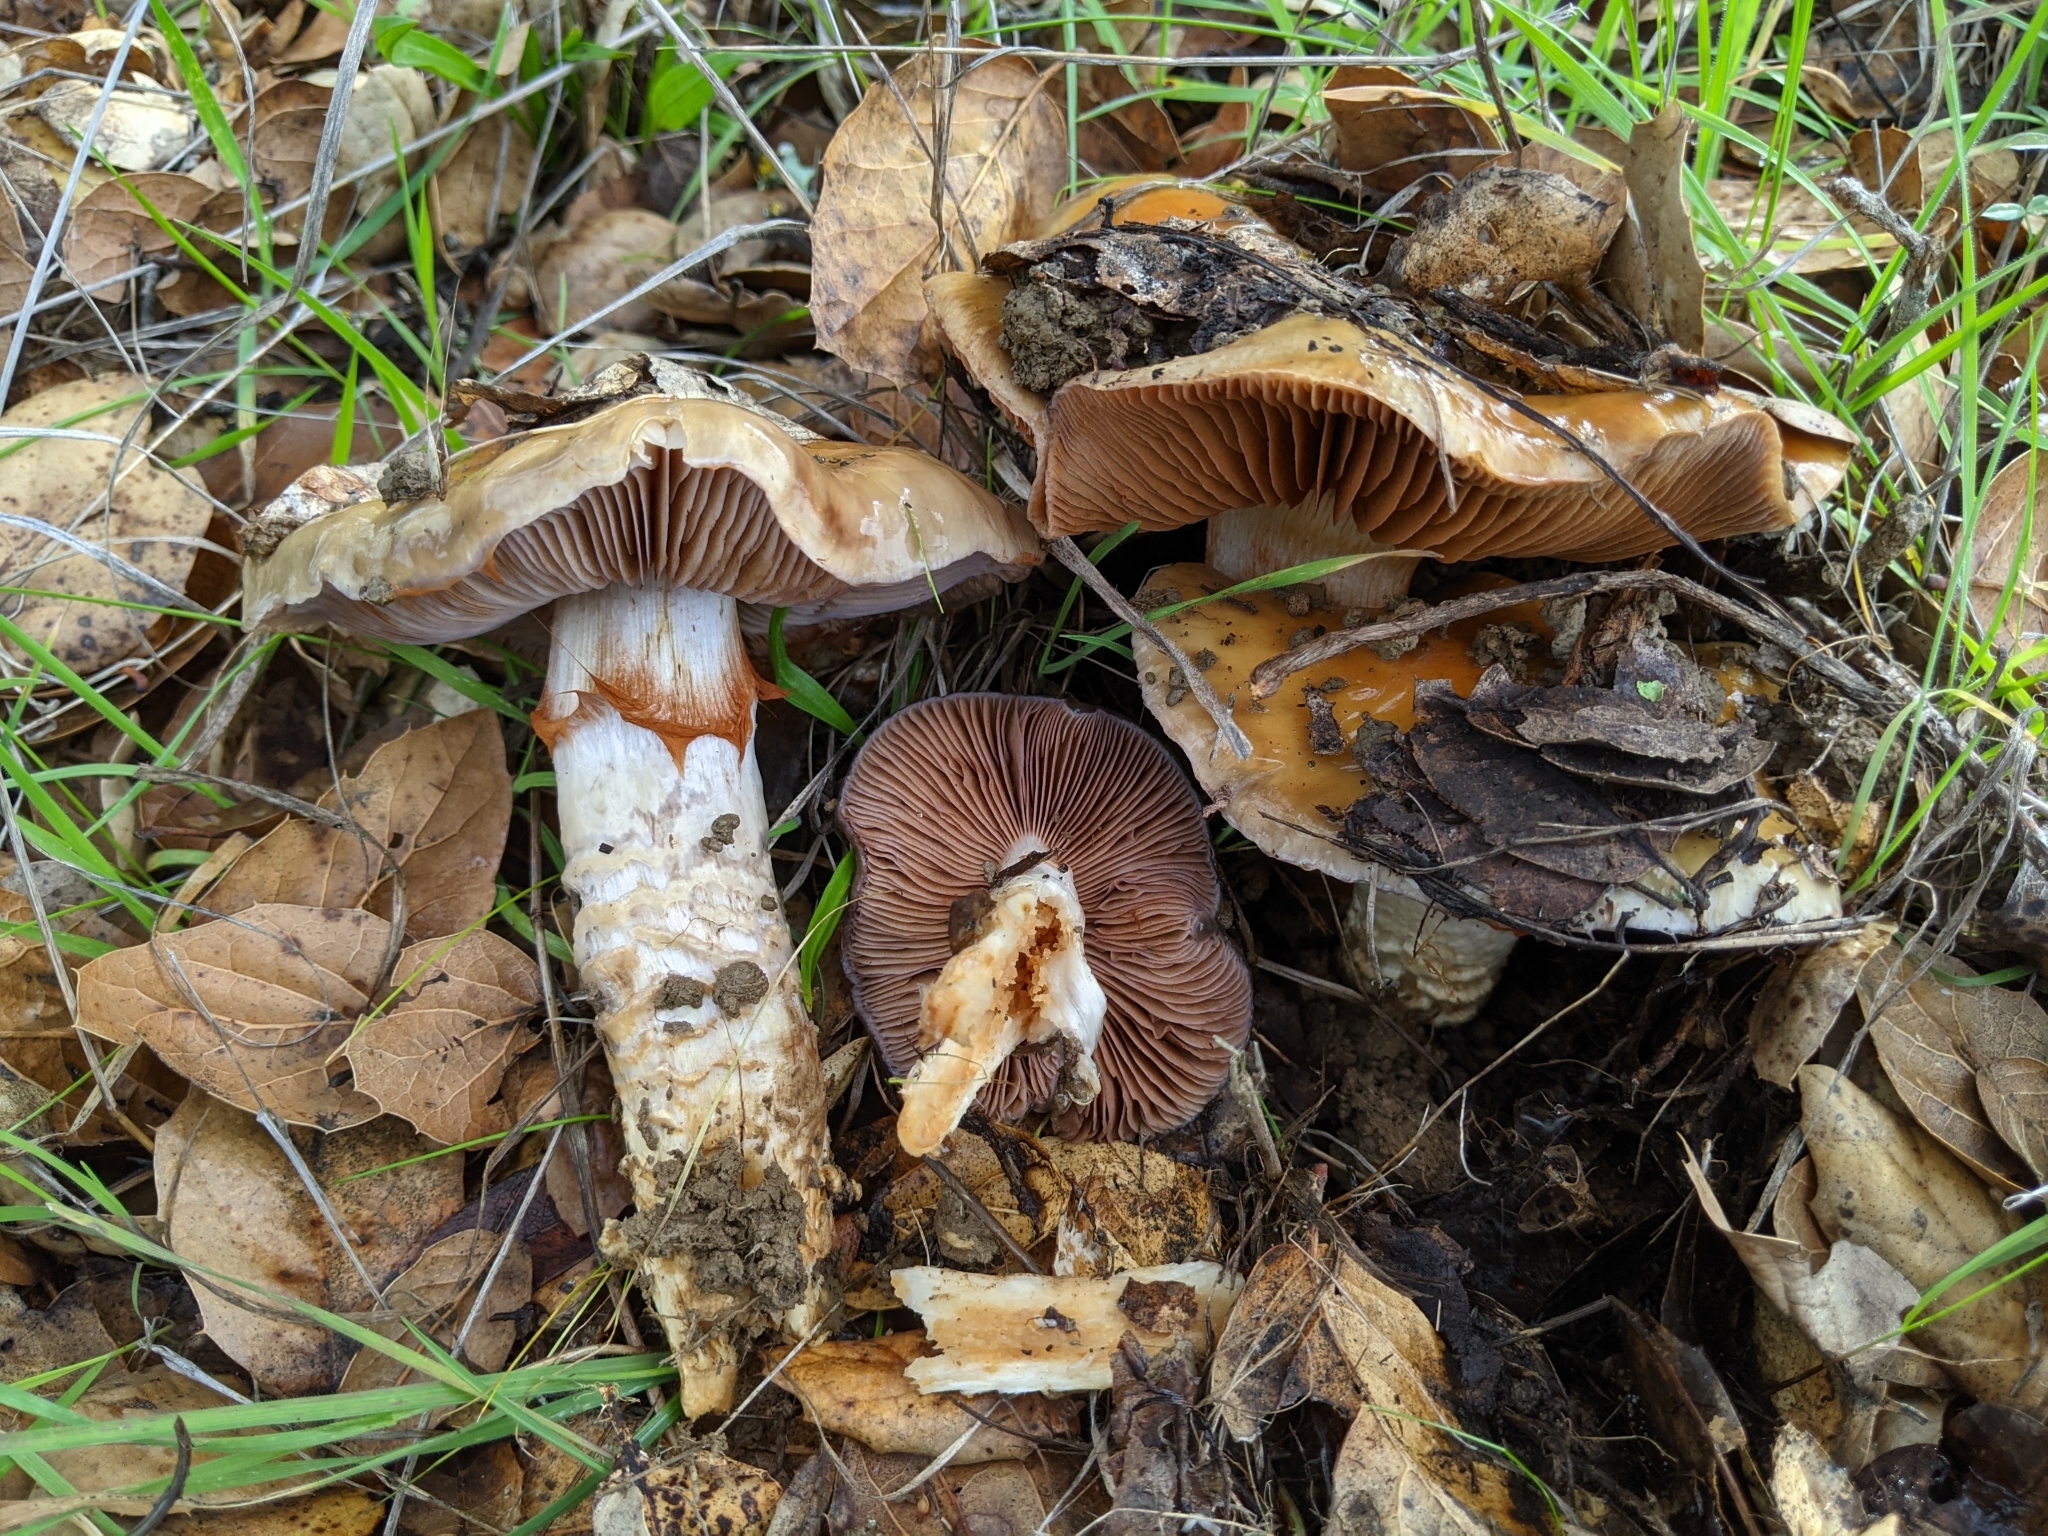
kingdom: Fungi
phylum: Basidiomycota
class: Agaricomycetes
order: Agaricales
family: Cortinariaceae
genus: Cortinarius
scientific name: Cortinarius glutinosoarmillatus
